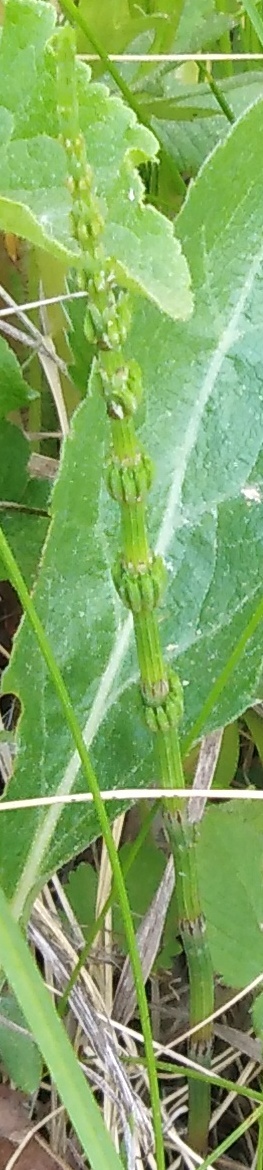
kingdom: Plantae
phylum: Tracheophyta
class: Polypodiopsida
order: Equisetales
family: Equisetaceae
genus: Equisetum
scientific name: Equisetum arvense
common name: Field horsetail
